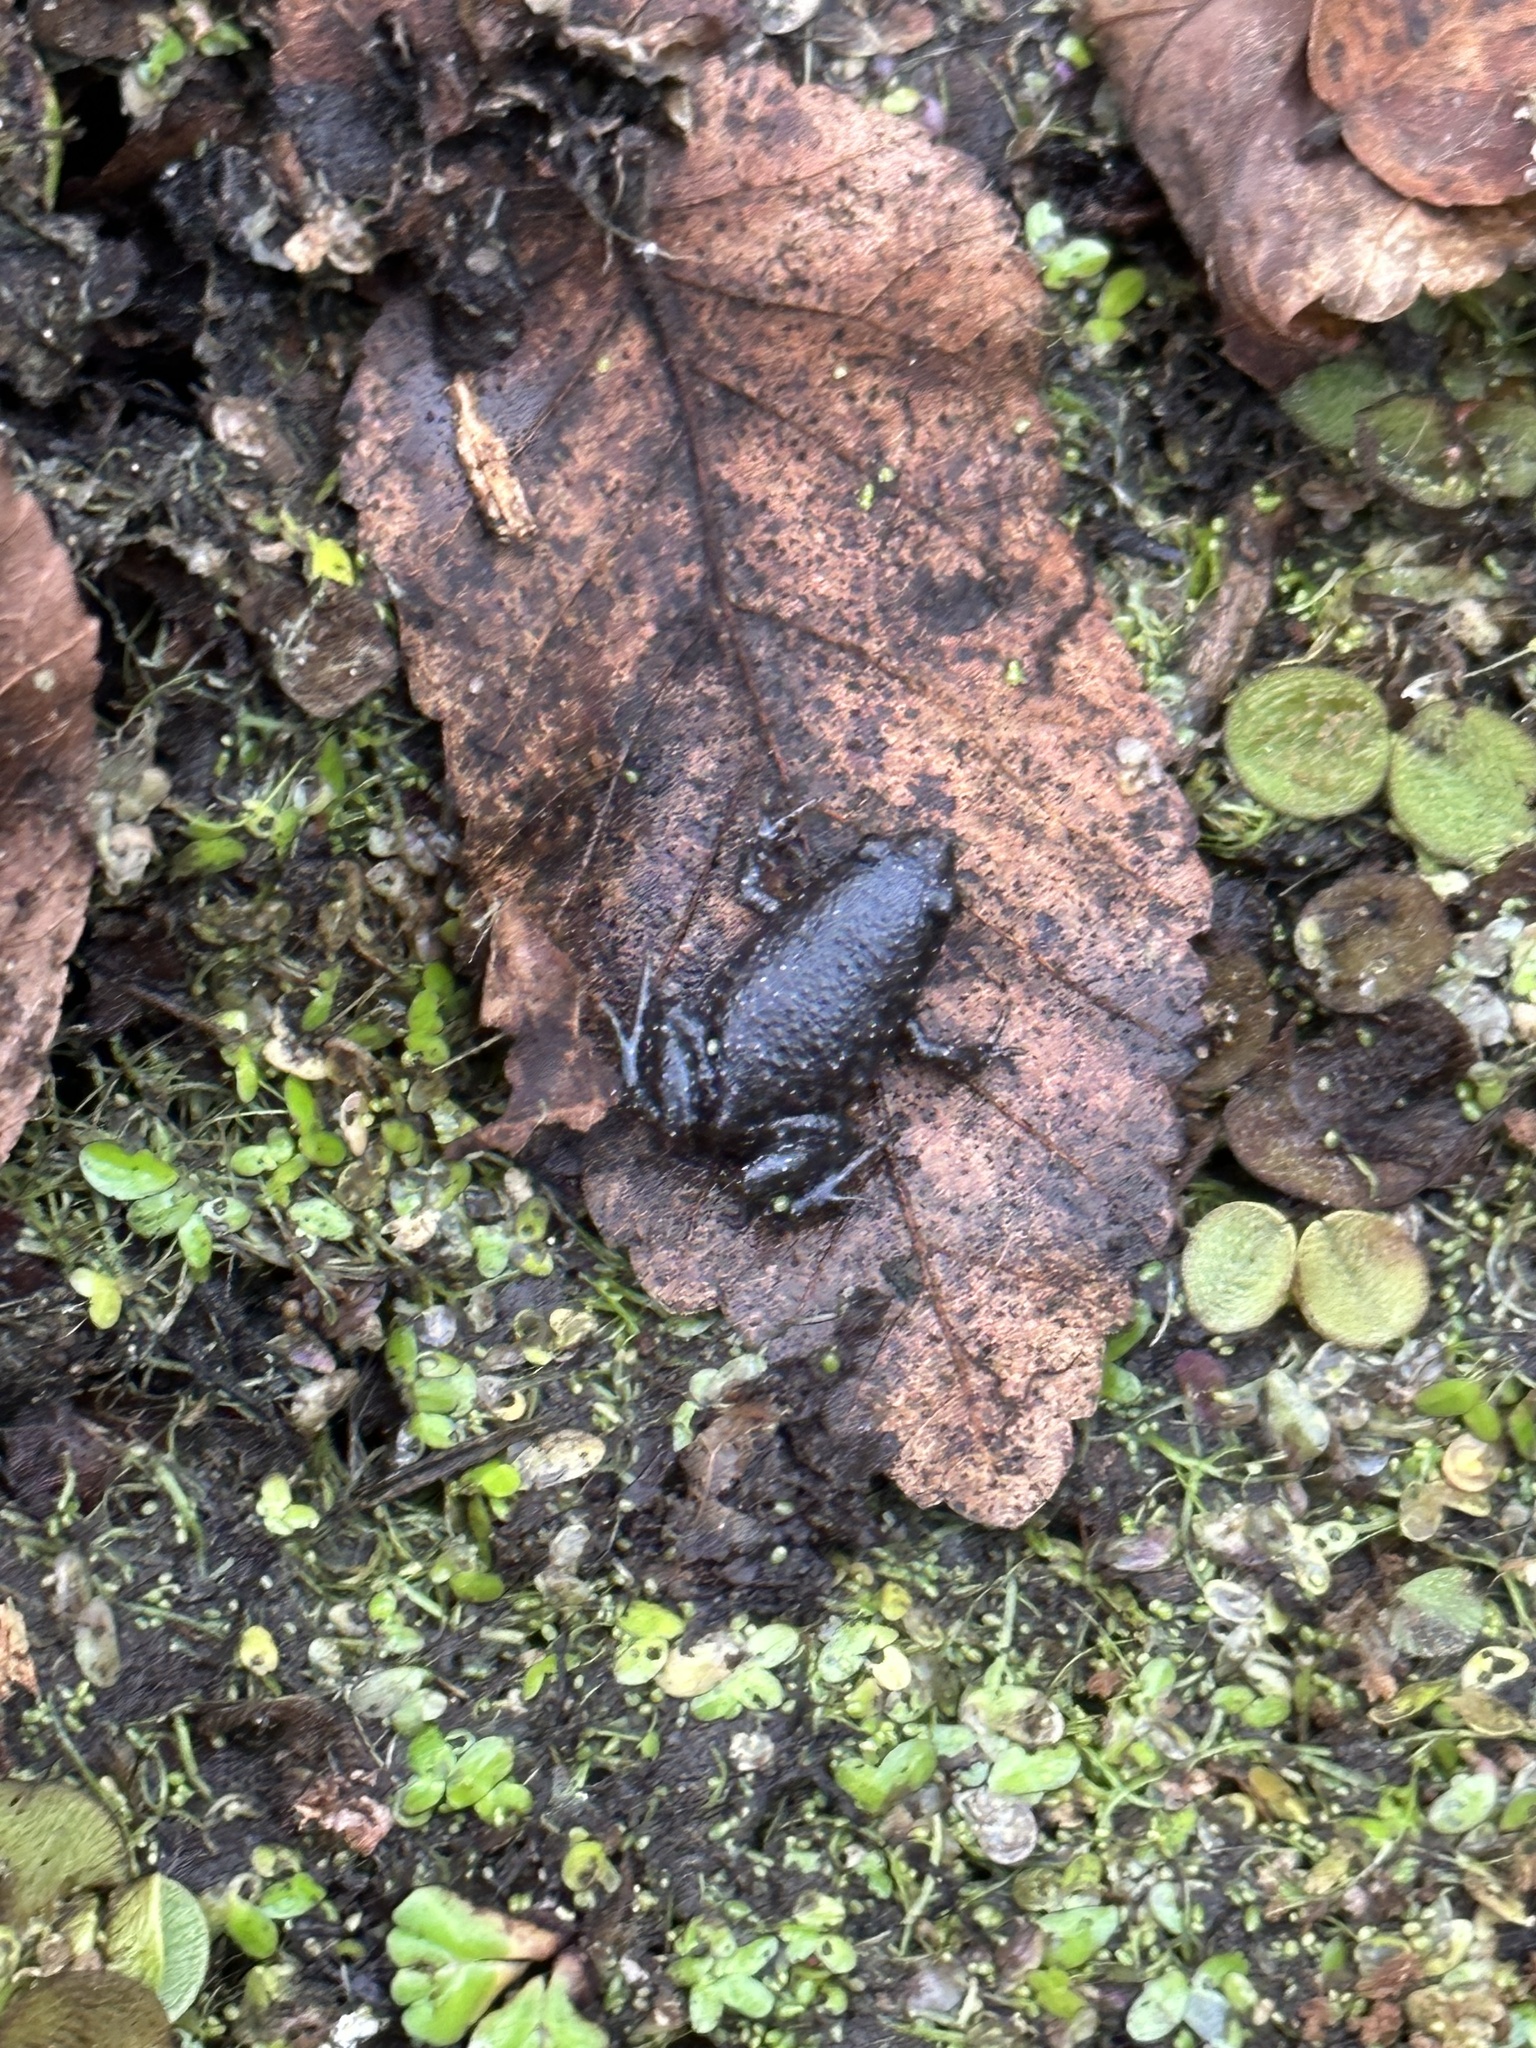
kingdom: Animalia
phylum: Chordata
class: Amphibia
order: Anura
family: Microhylidae
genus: Gastrophryne
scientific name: Gastrophryne carolinensis
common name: Eastern narrowmouth toad
